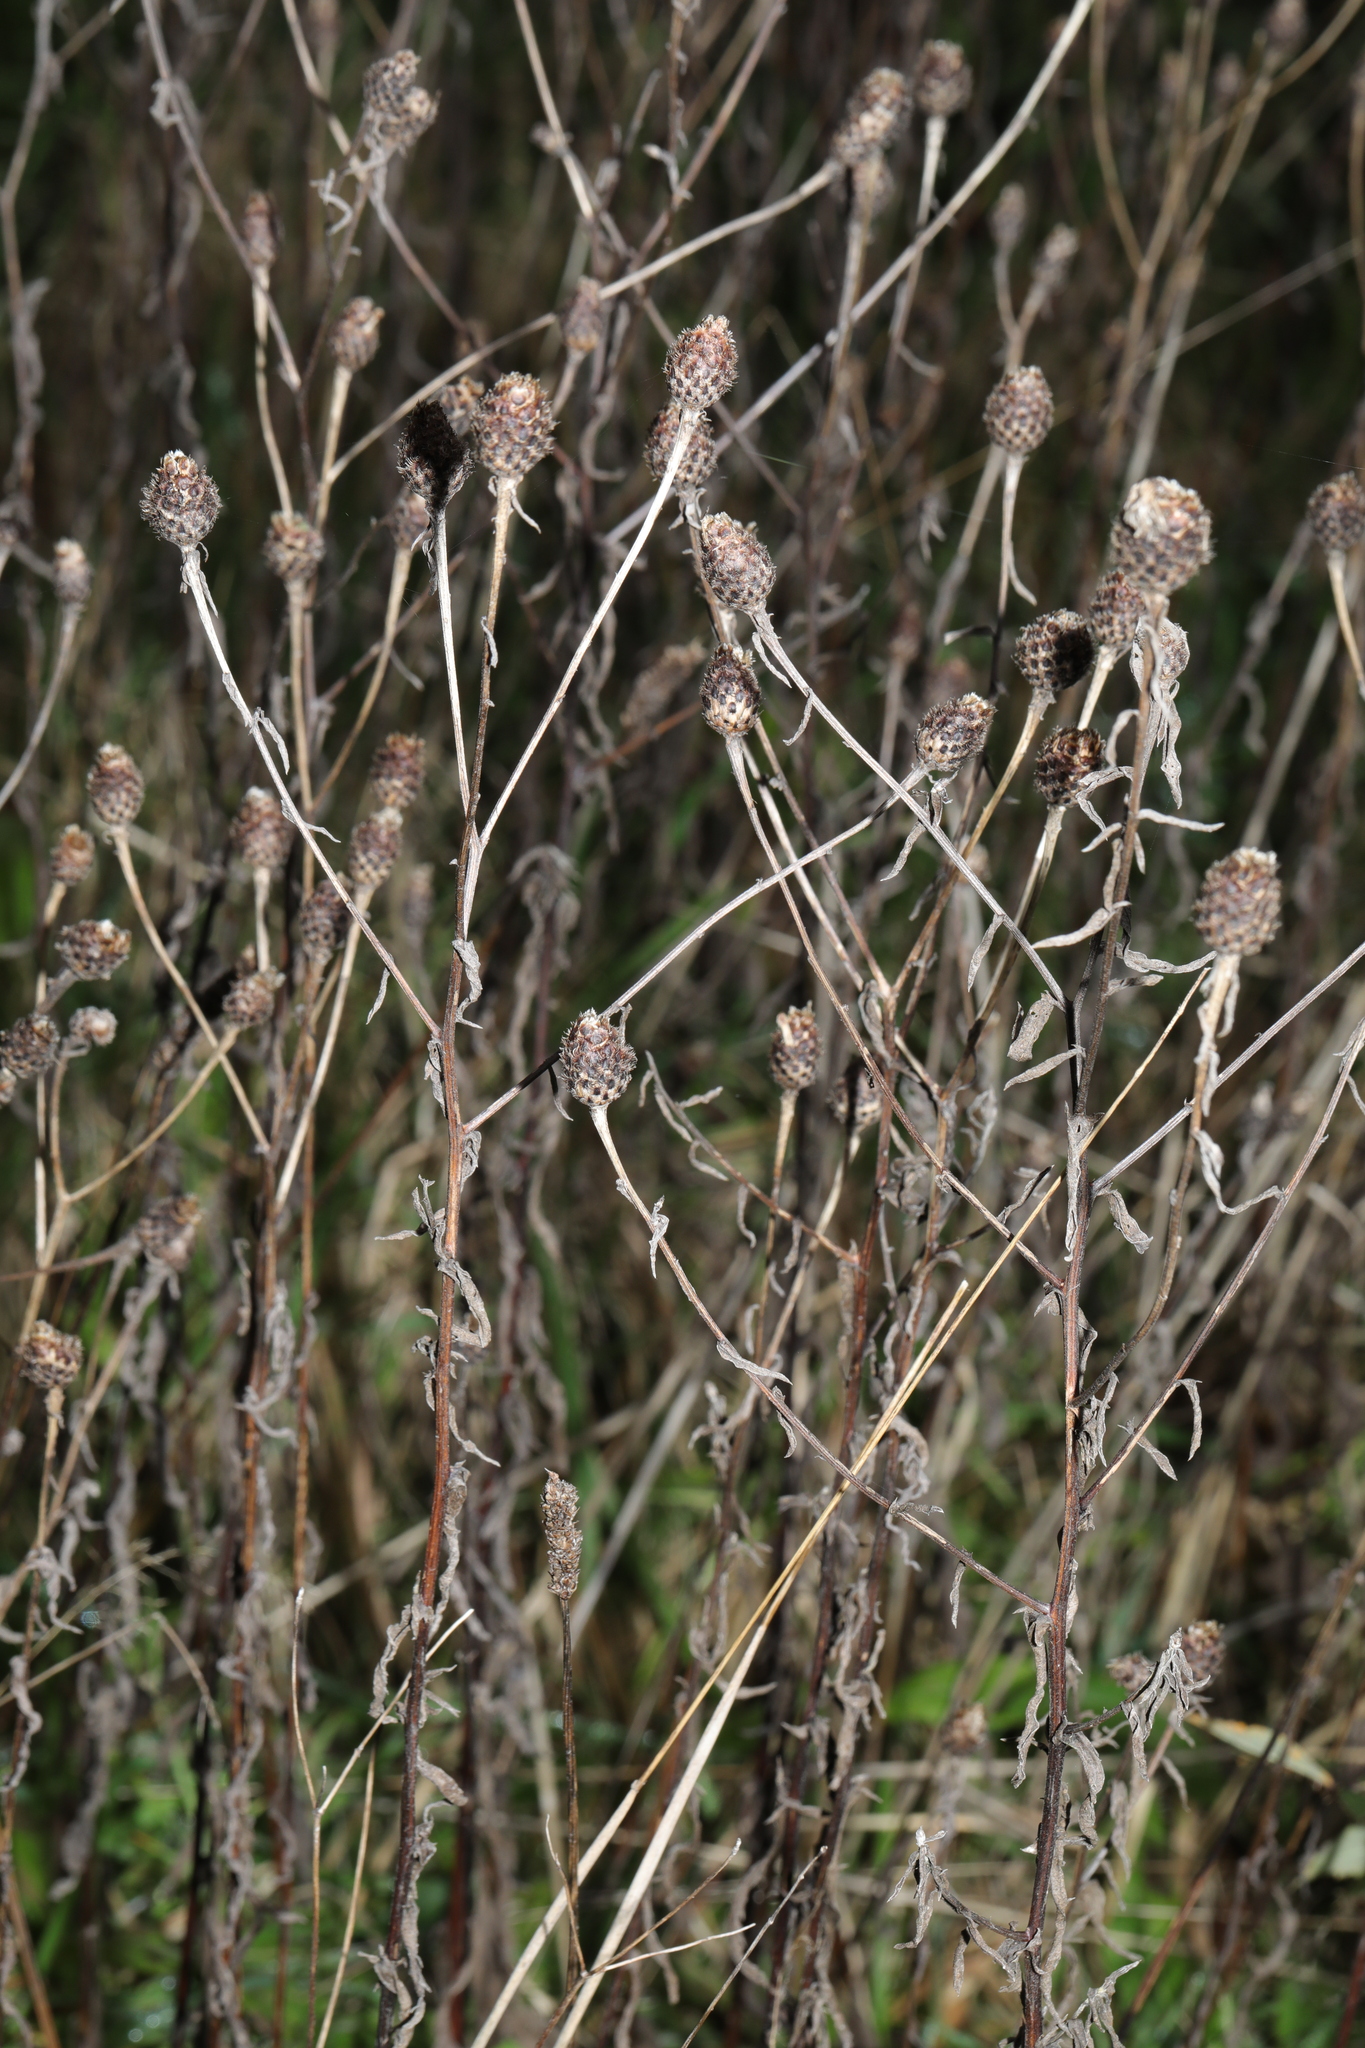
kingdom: Plantae
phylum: Tracheophyta
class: Magnoliopsida
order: Asterales
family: Asteraceae
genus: Centaurea
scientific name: Centaurea nigra
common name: Lesser knapweed
